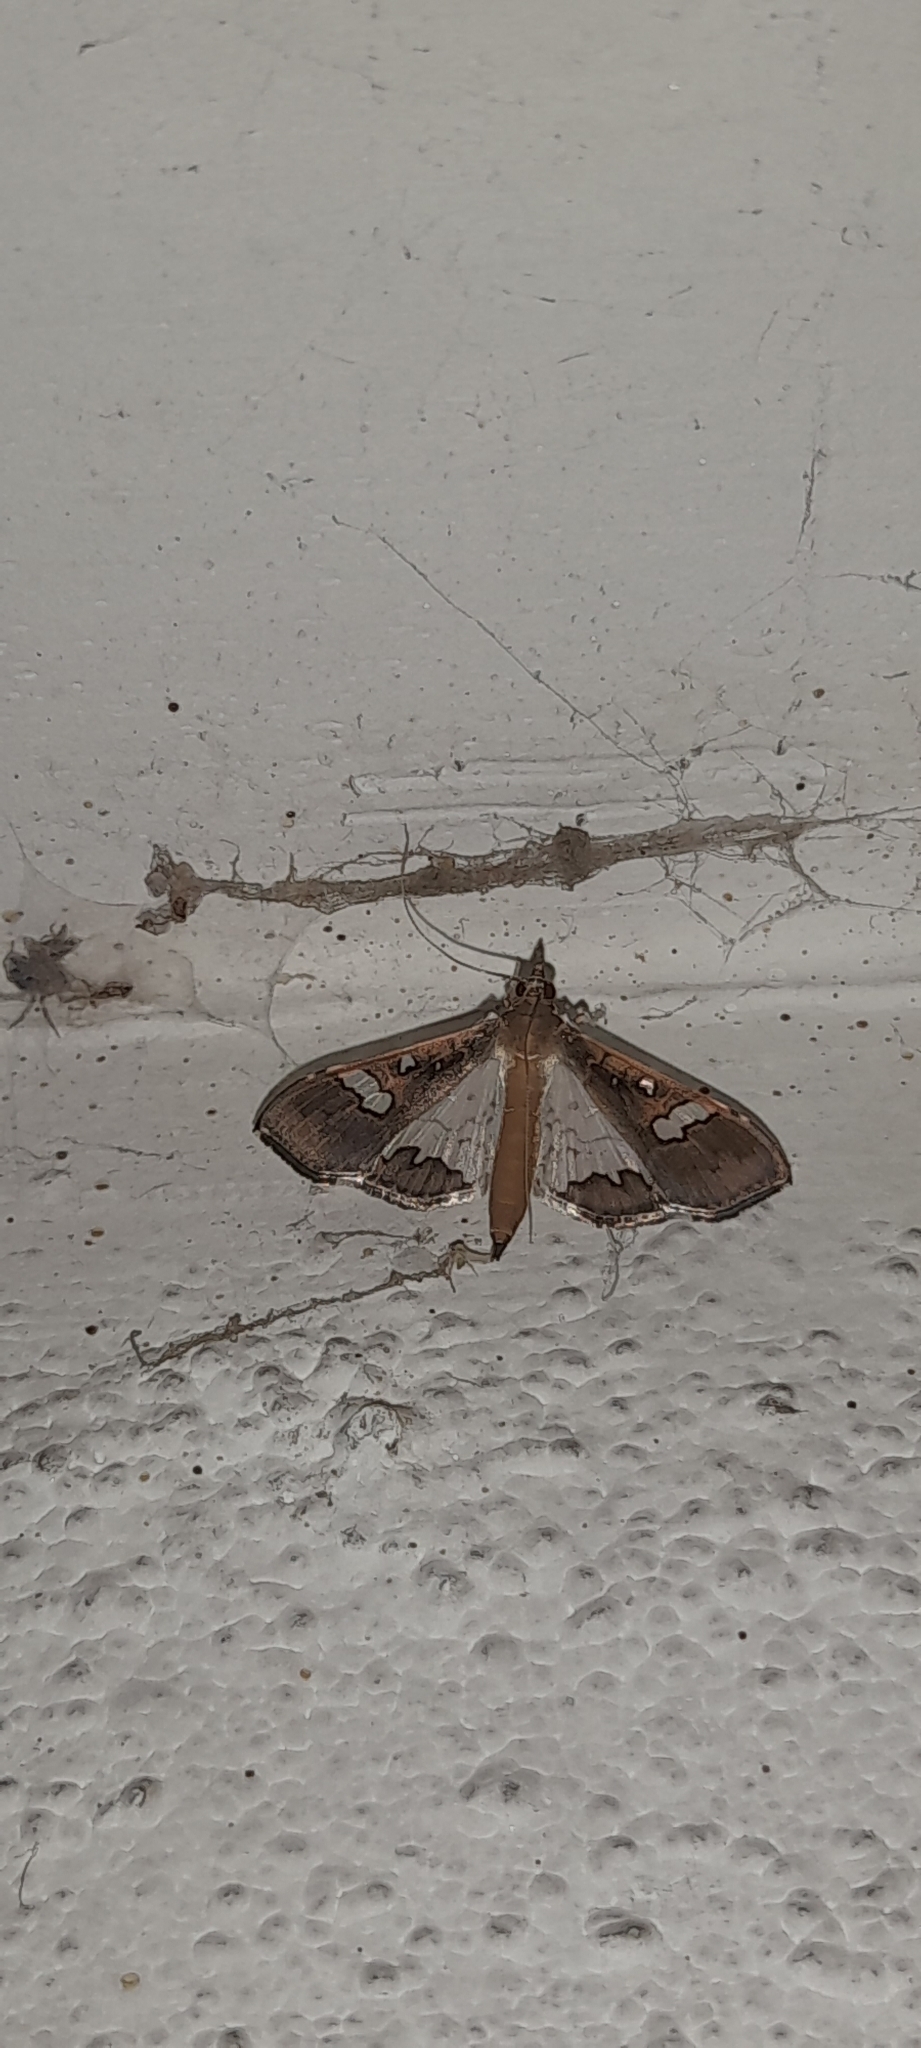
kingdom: Animalia
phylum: Arthropoda
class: Insecta
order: Lepidoptera
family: Crambidae
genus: Maruca
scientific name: Maruca vitrata
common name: Maruca pod borer
